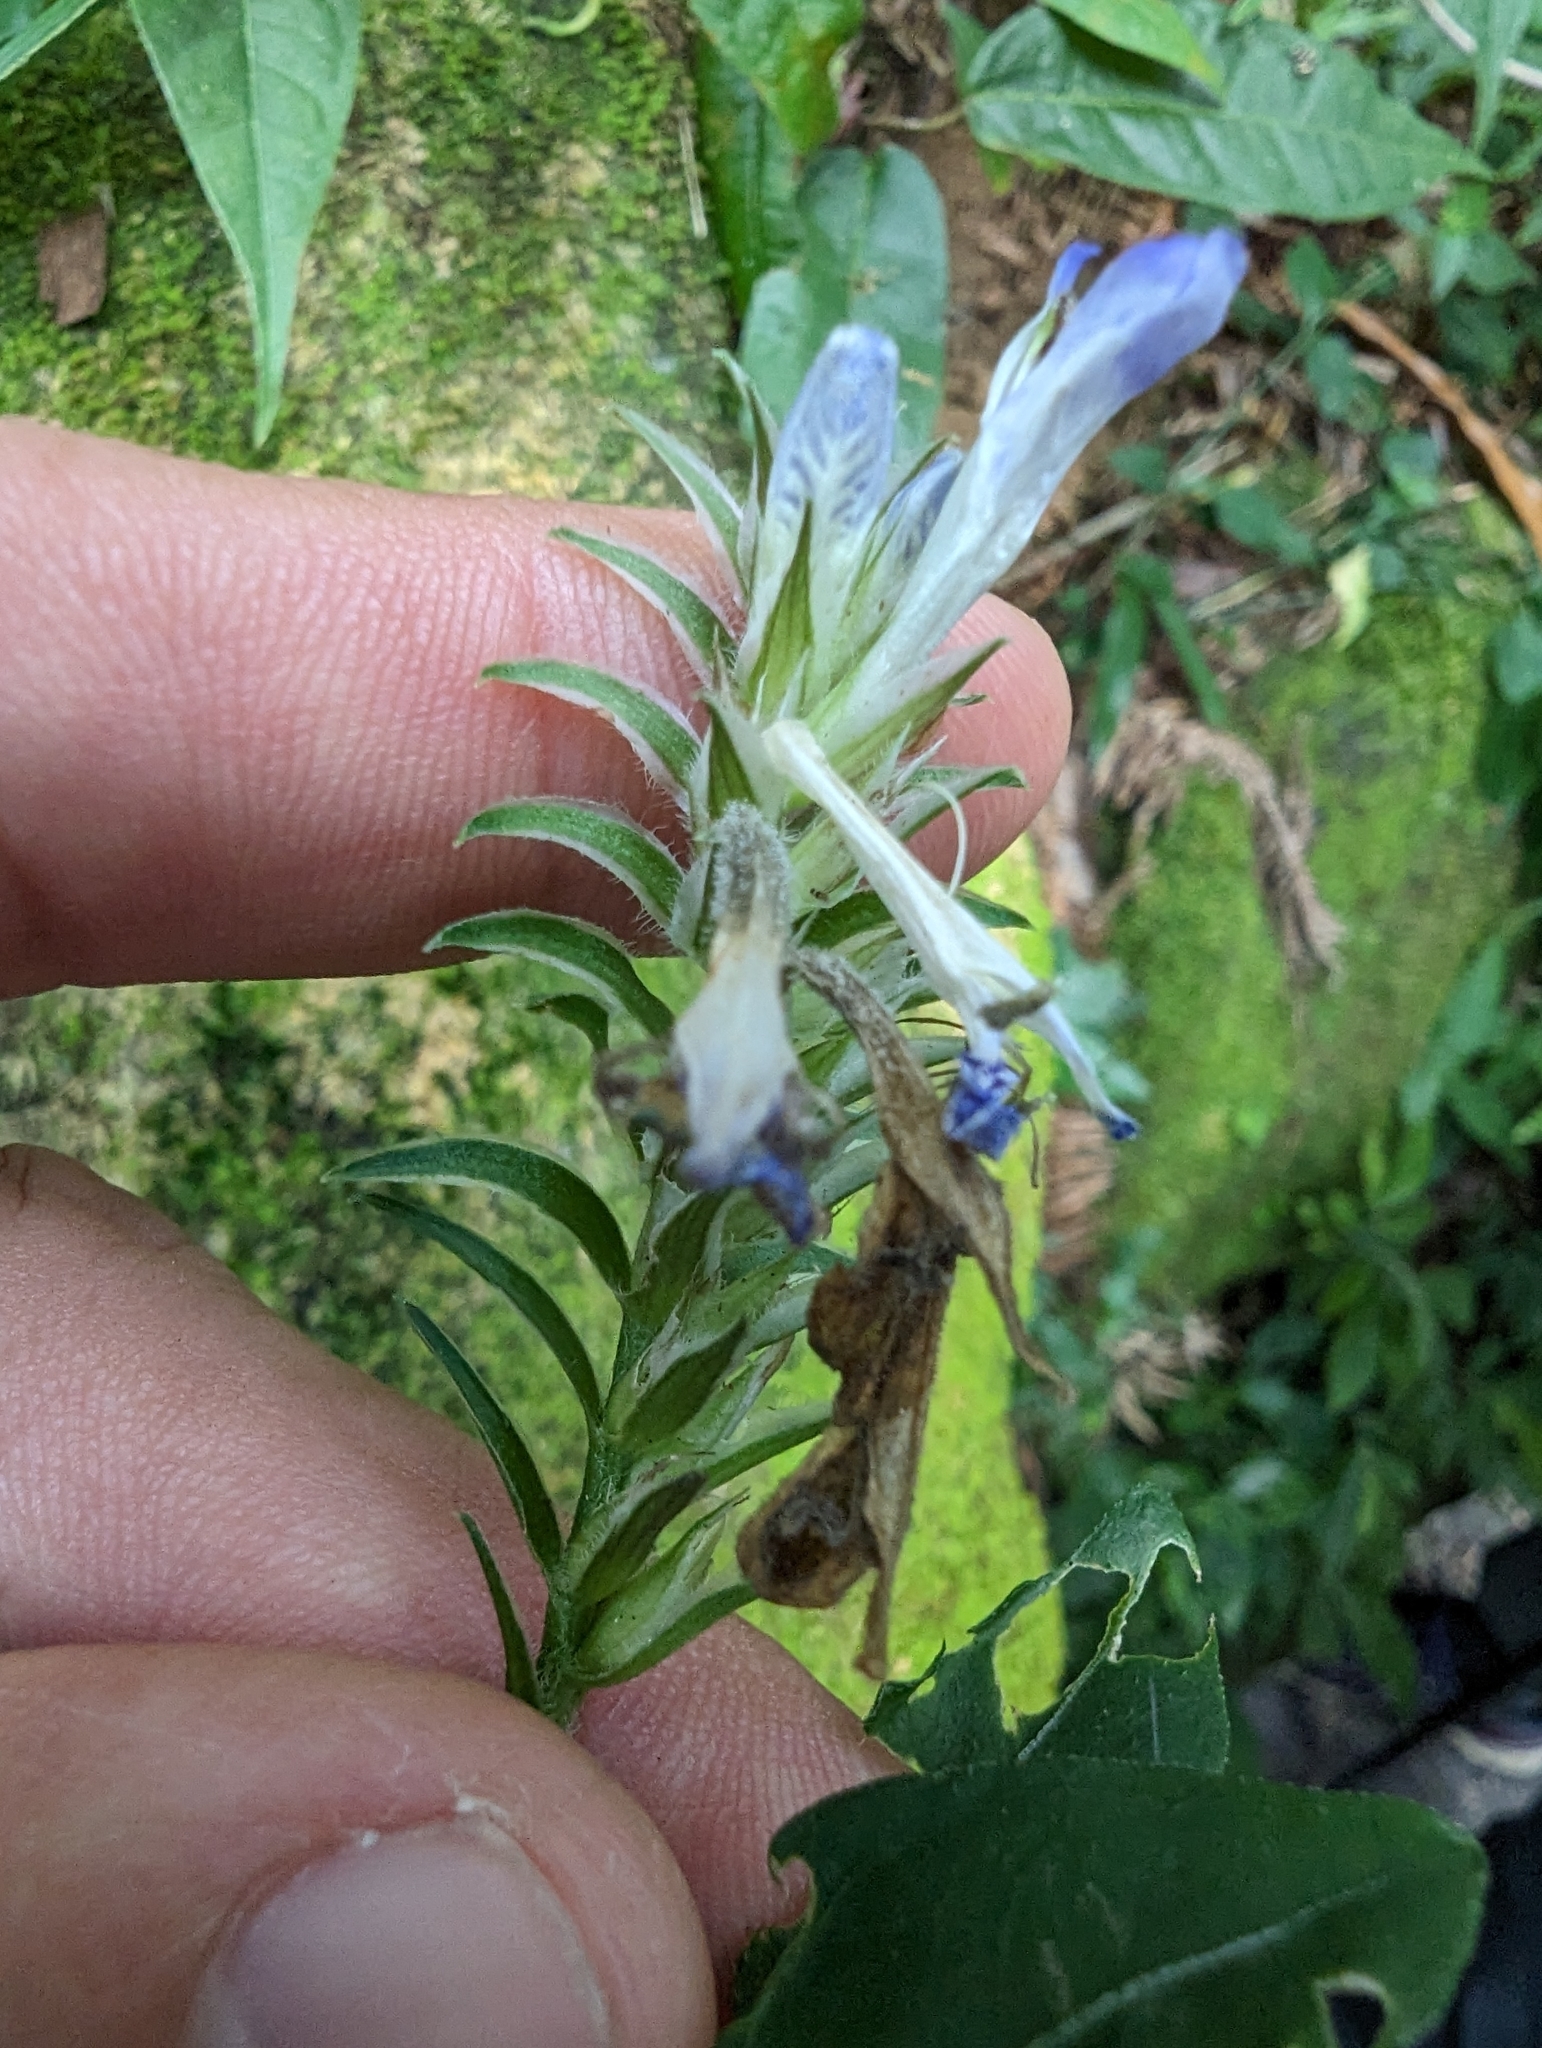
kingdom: Plantae
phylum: Tracheophyta
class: Magnoliopsida
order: Lamiales
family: Acanthaceae
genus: Rungia
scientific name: Rungia taiwanensis
